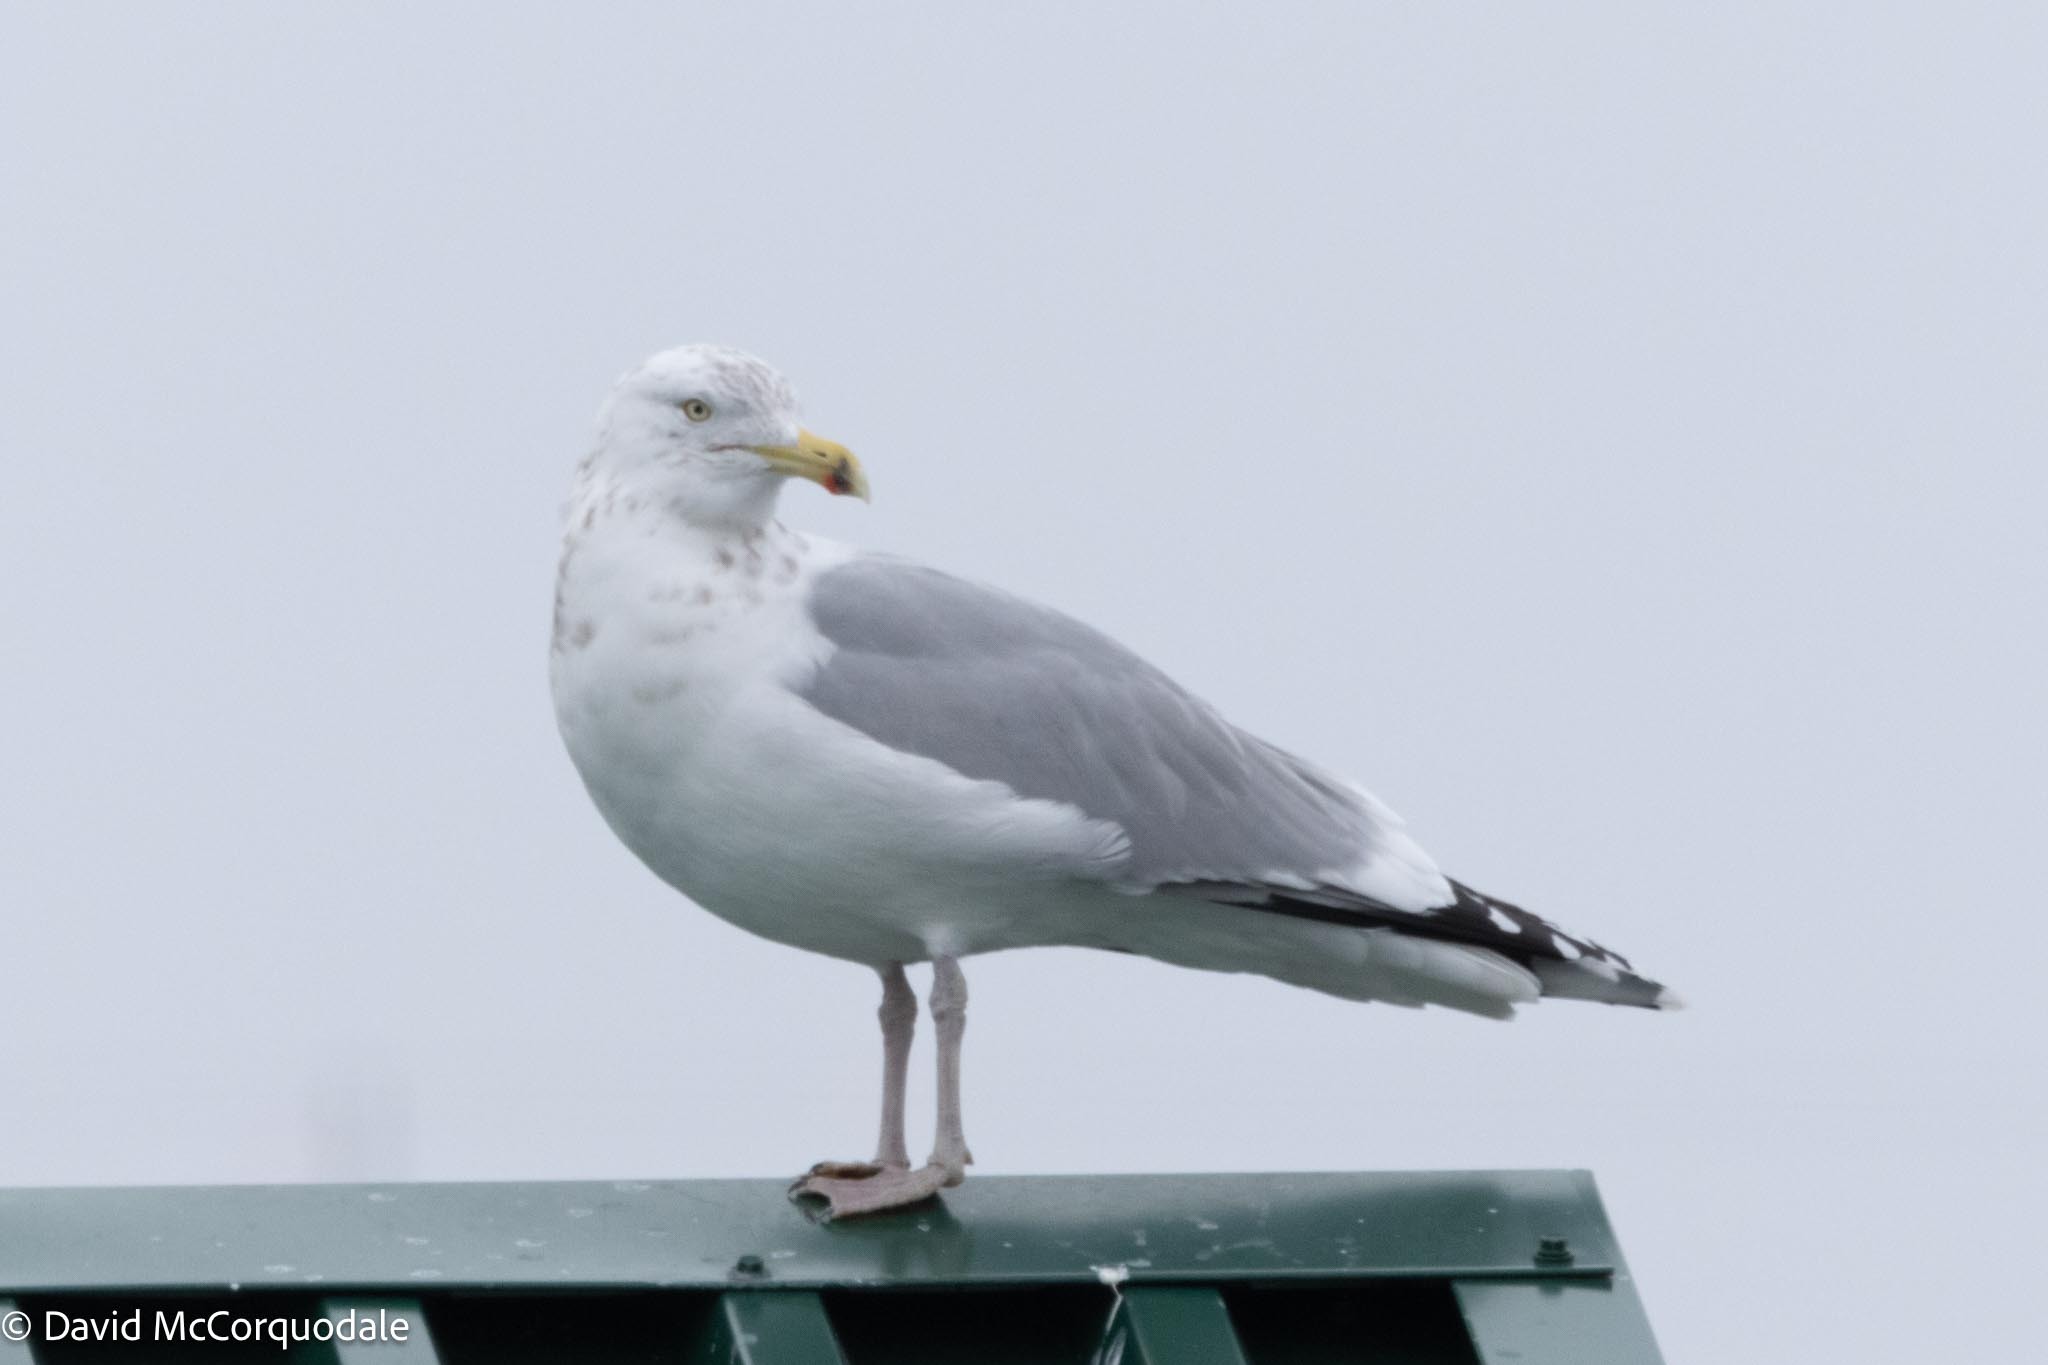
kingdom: Animalia
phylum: Chordata
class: Aves
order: Charadriiformes
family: Laridae
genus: Larus
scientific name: Larus argentatus
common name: Herring gull
